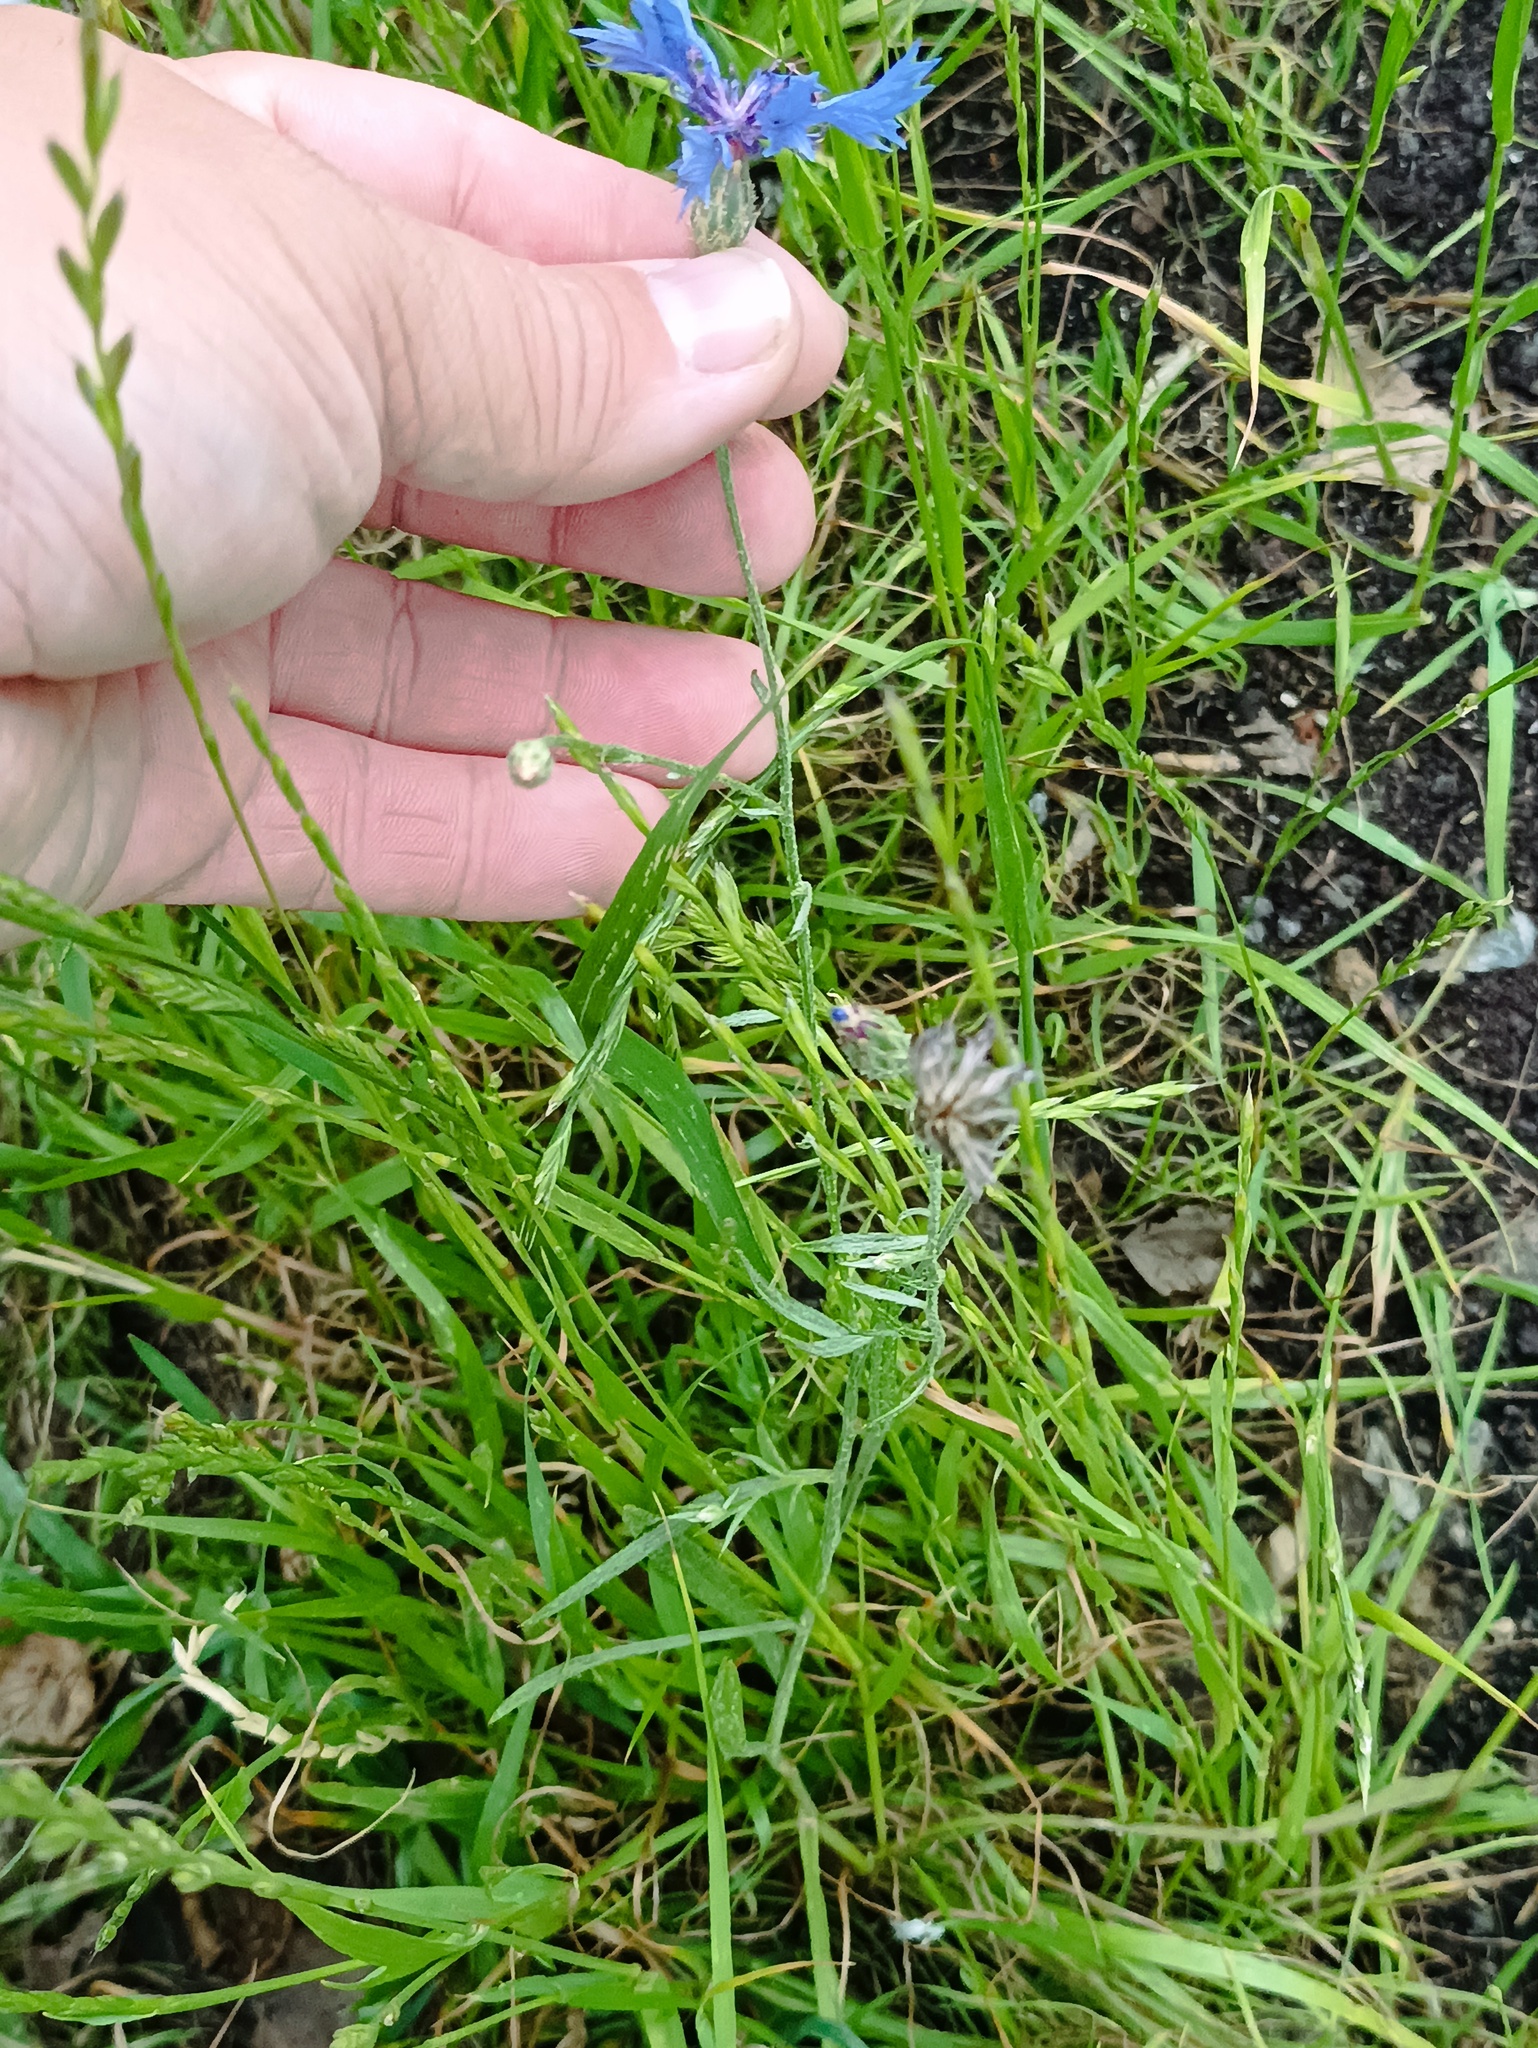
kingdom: Plantae
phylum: Tracheophyta
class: Magnoliopsida
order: Asterales
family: Asteraceae
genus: Centaurea
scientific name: Centaurea cyanus
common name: Cornflower
